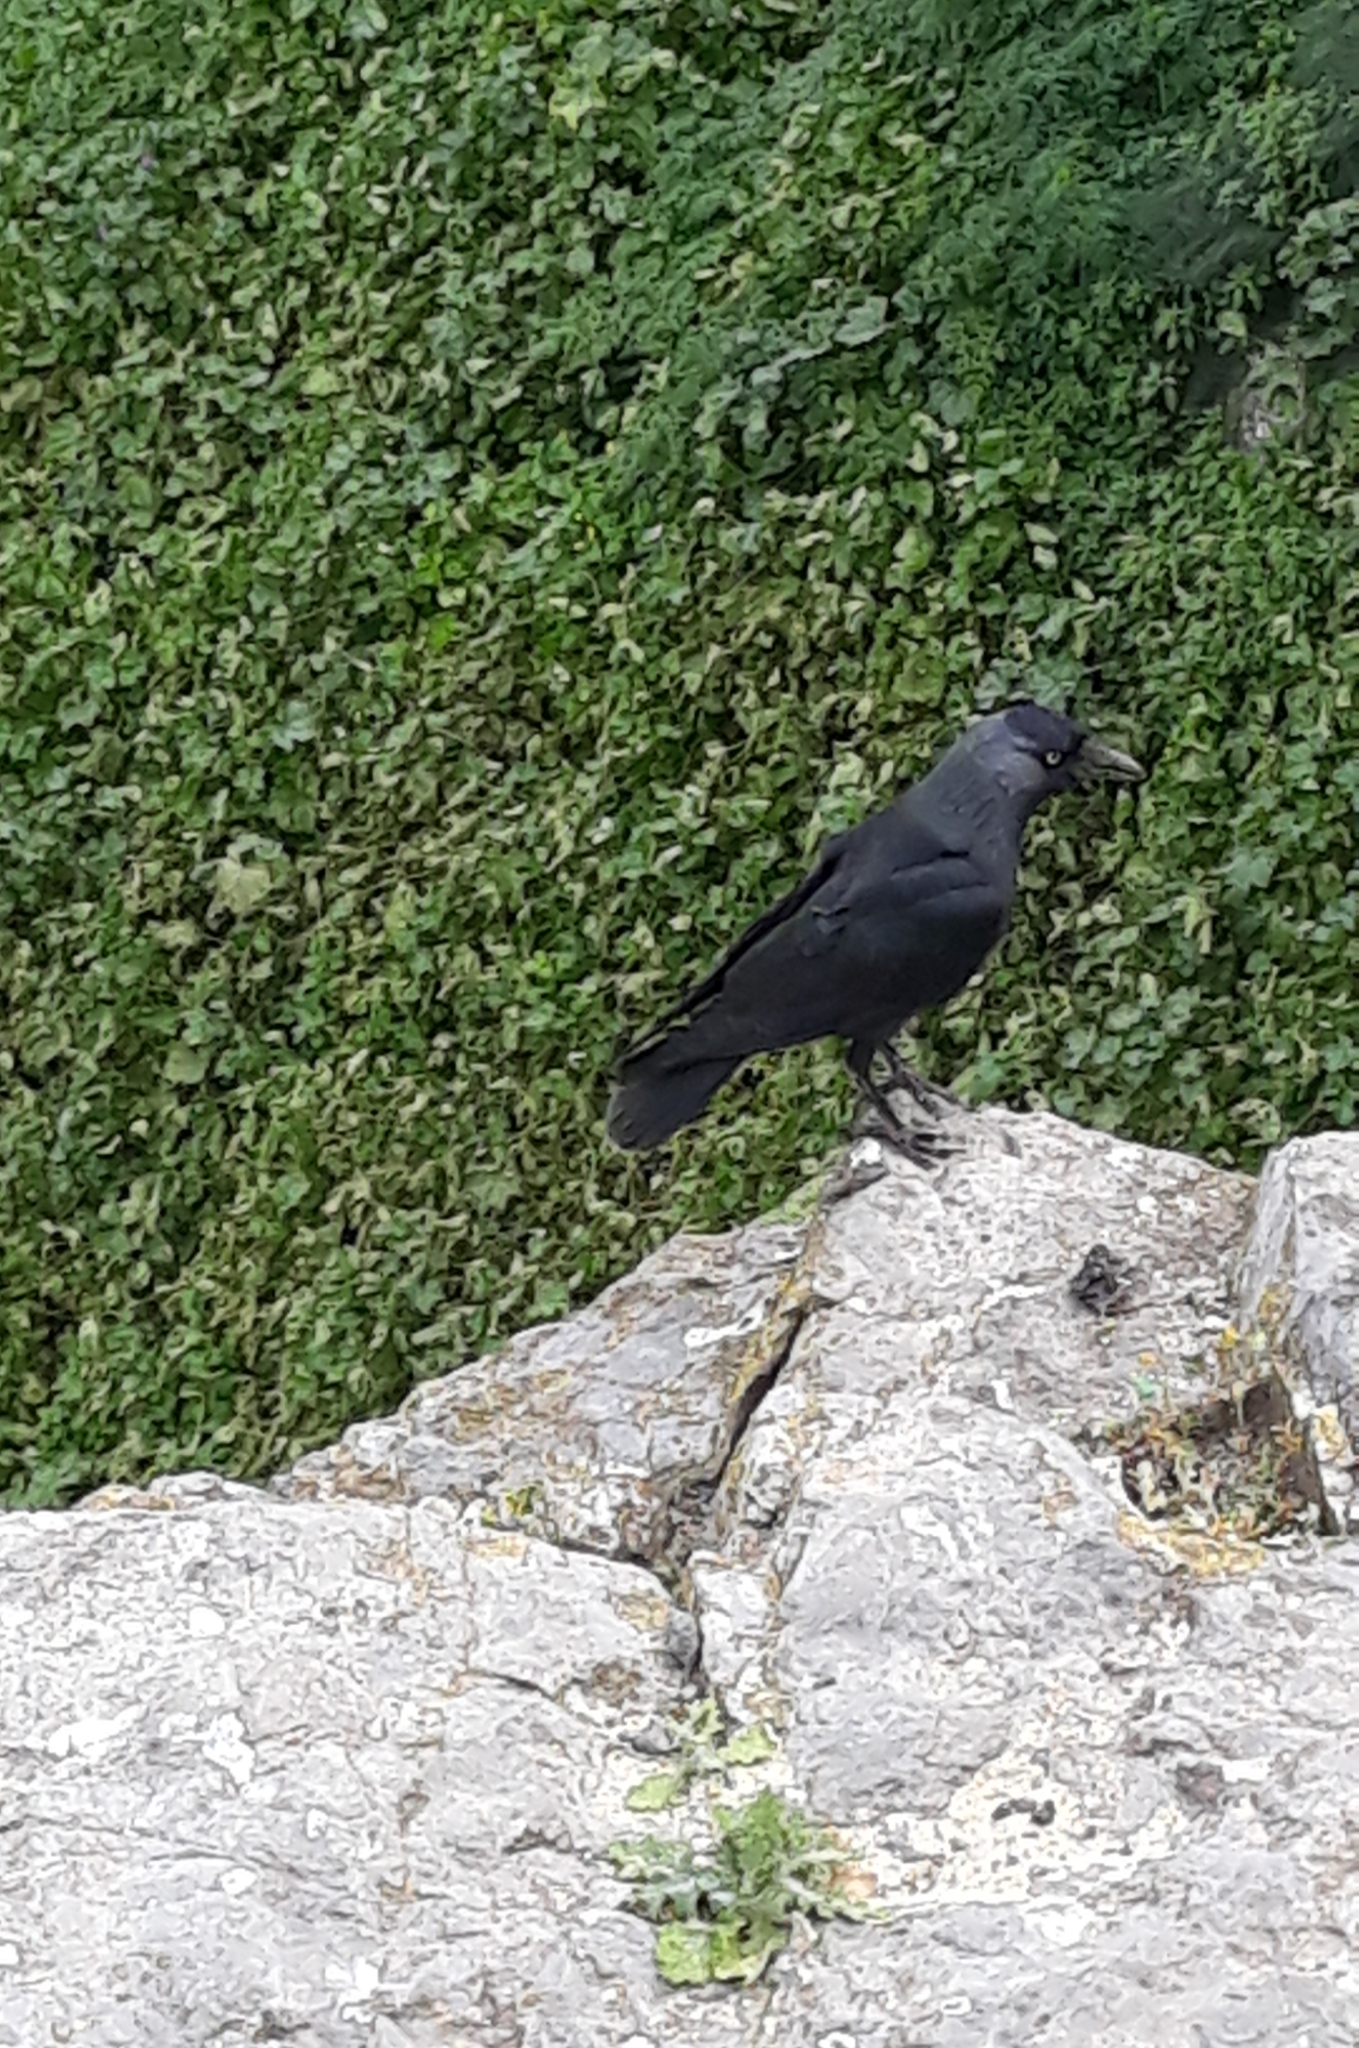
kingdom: Animalia
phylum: Chordata
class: Aves
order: Passeriformes
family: Corvidae
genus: Coloeus
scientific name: Coloeus monedula
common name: Western jackdaw
